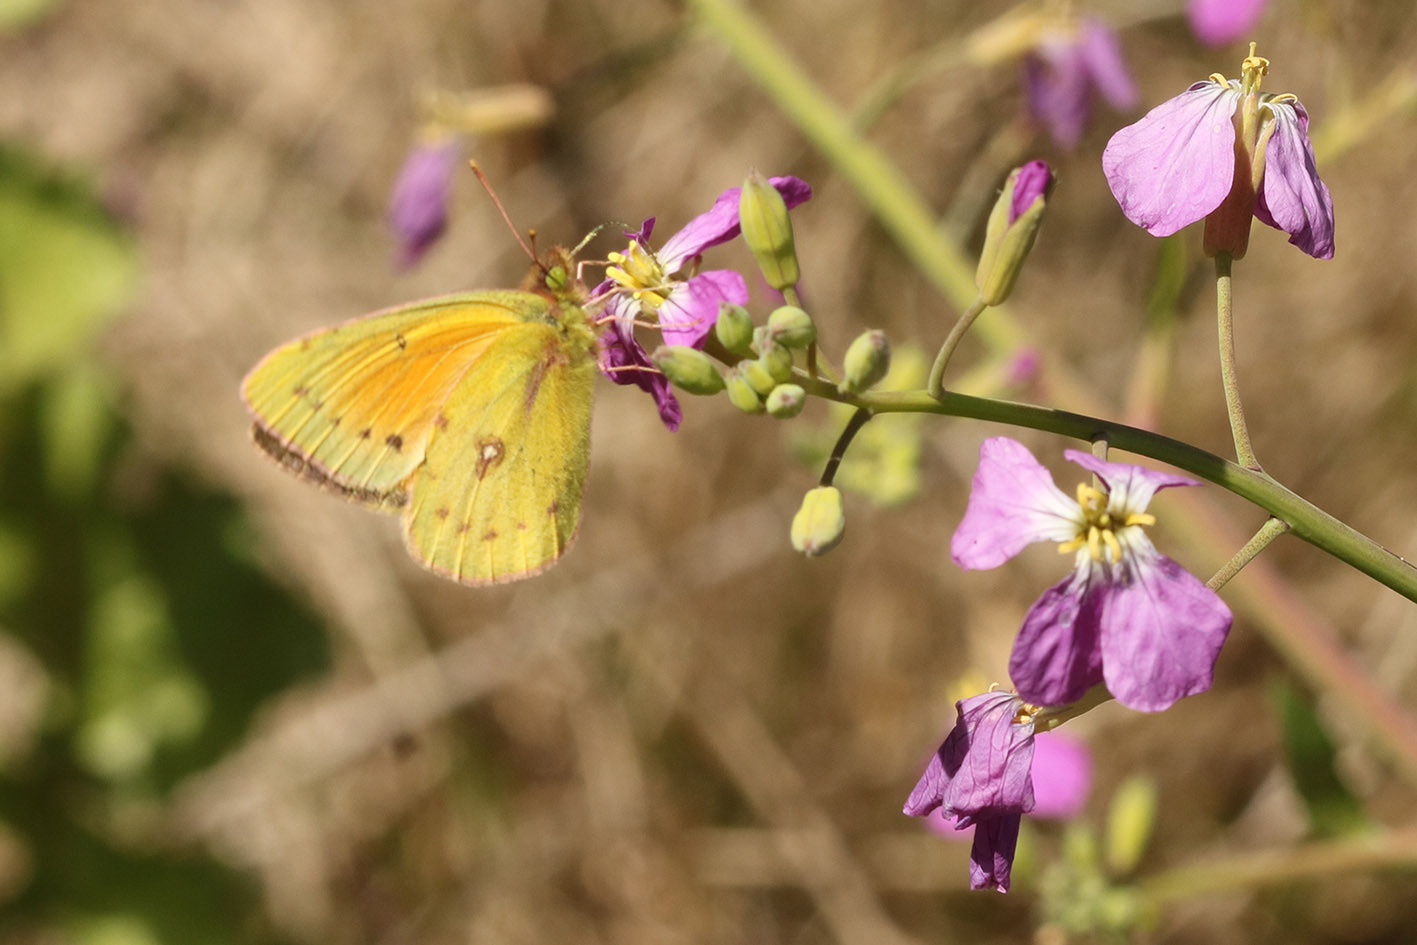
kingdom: Animalia
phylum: Arthropoda
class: Insecta
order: Lepidoptera
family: Pieridae
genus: Colias
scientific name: Colias lesbia
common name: Lesbia clouded yellow
